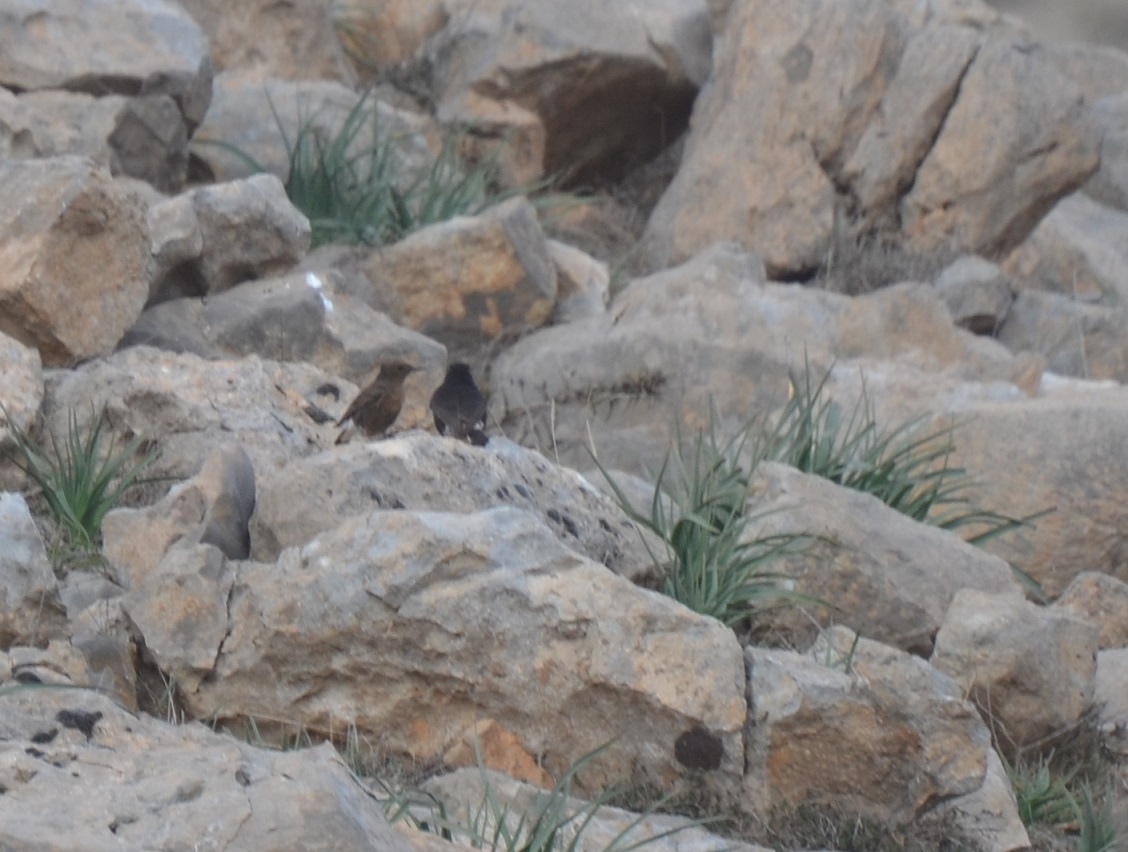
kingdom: Animalia
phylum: Chordata
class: Aves
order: Passeriformes
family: Muscicapidae
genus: Oenanthe
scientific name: Oenanthe leucura
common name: Black wheatear
